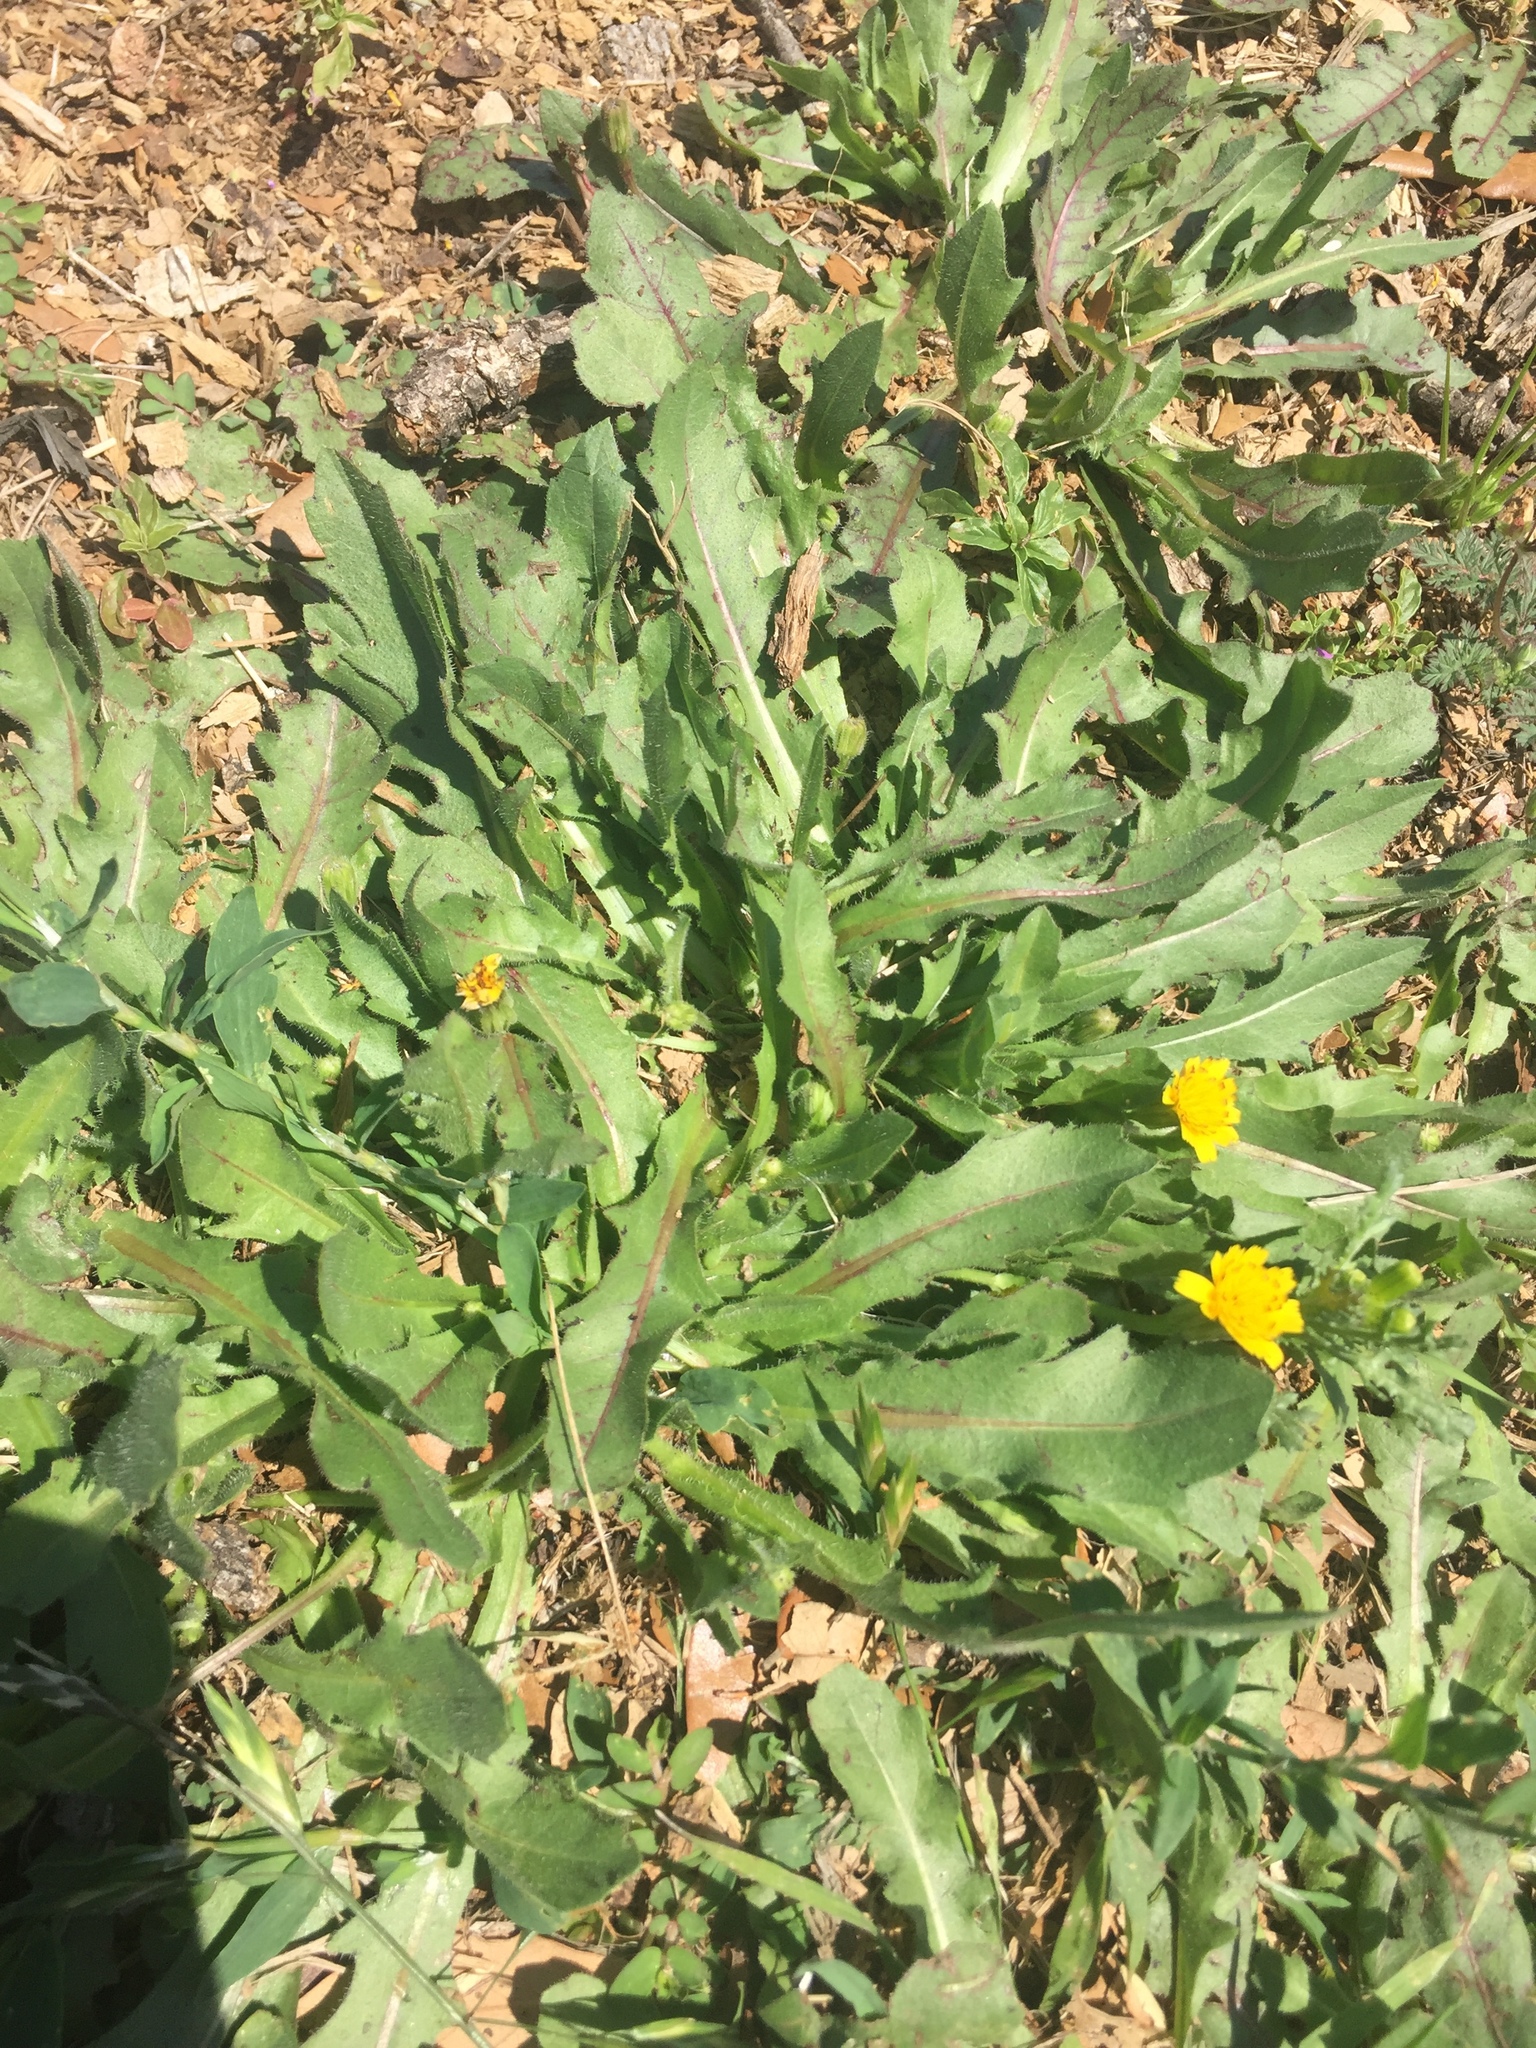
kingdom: Plantae
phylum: Tracheophyta
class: Magnoliopsida
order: Asterales
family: Asteraceae
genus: Hedypnois
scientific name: Hedypnois rhagadioloides
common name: Cretan weed
